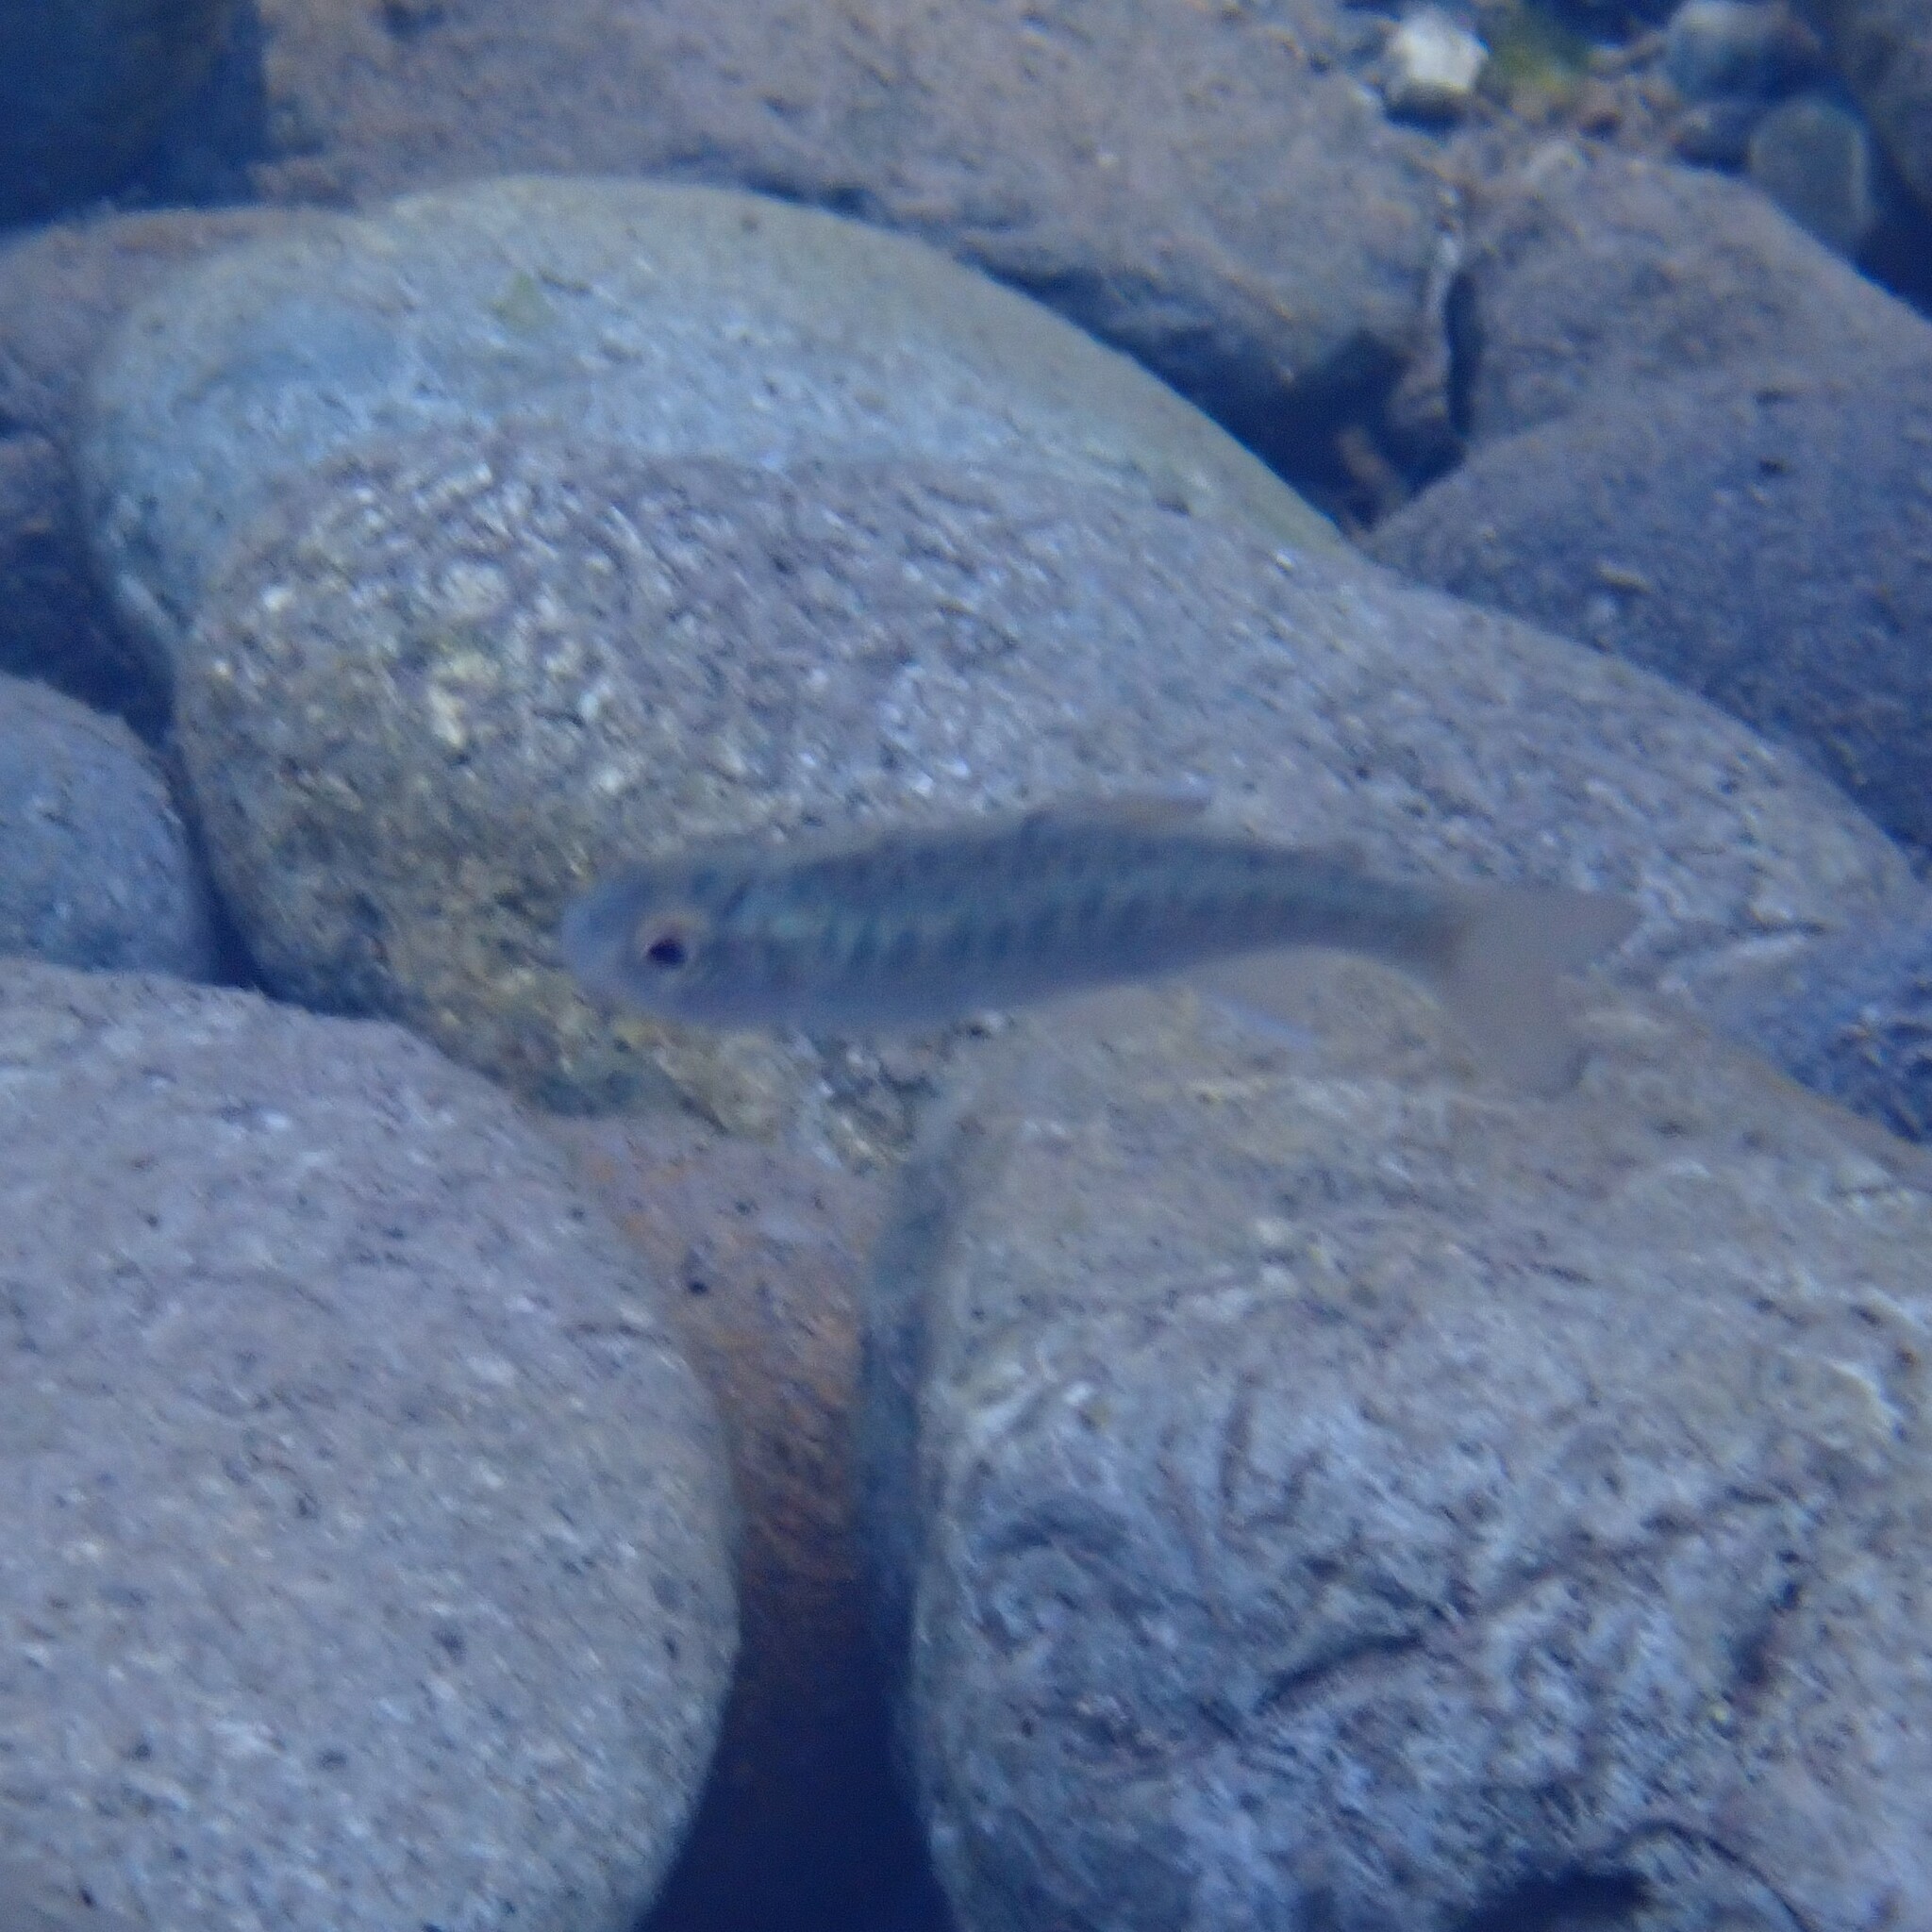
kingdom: Animalia
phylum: Chordata
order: Salmoniformes
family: Salmonidae
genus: Oncorhynchus
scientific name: Oncorhynchus kisutch
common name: Coho salmon
